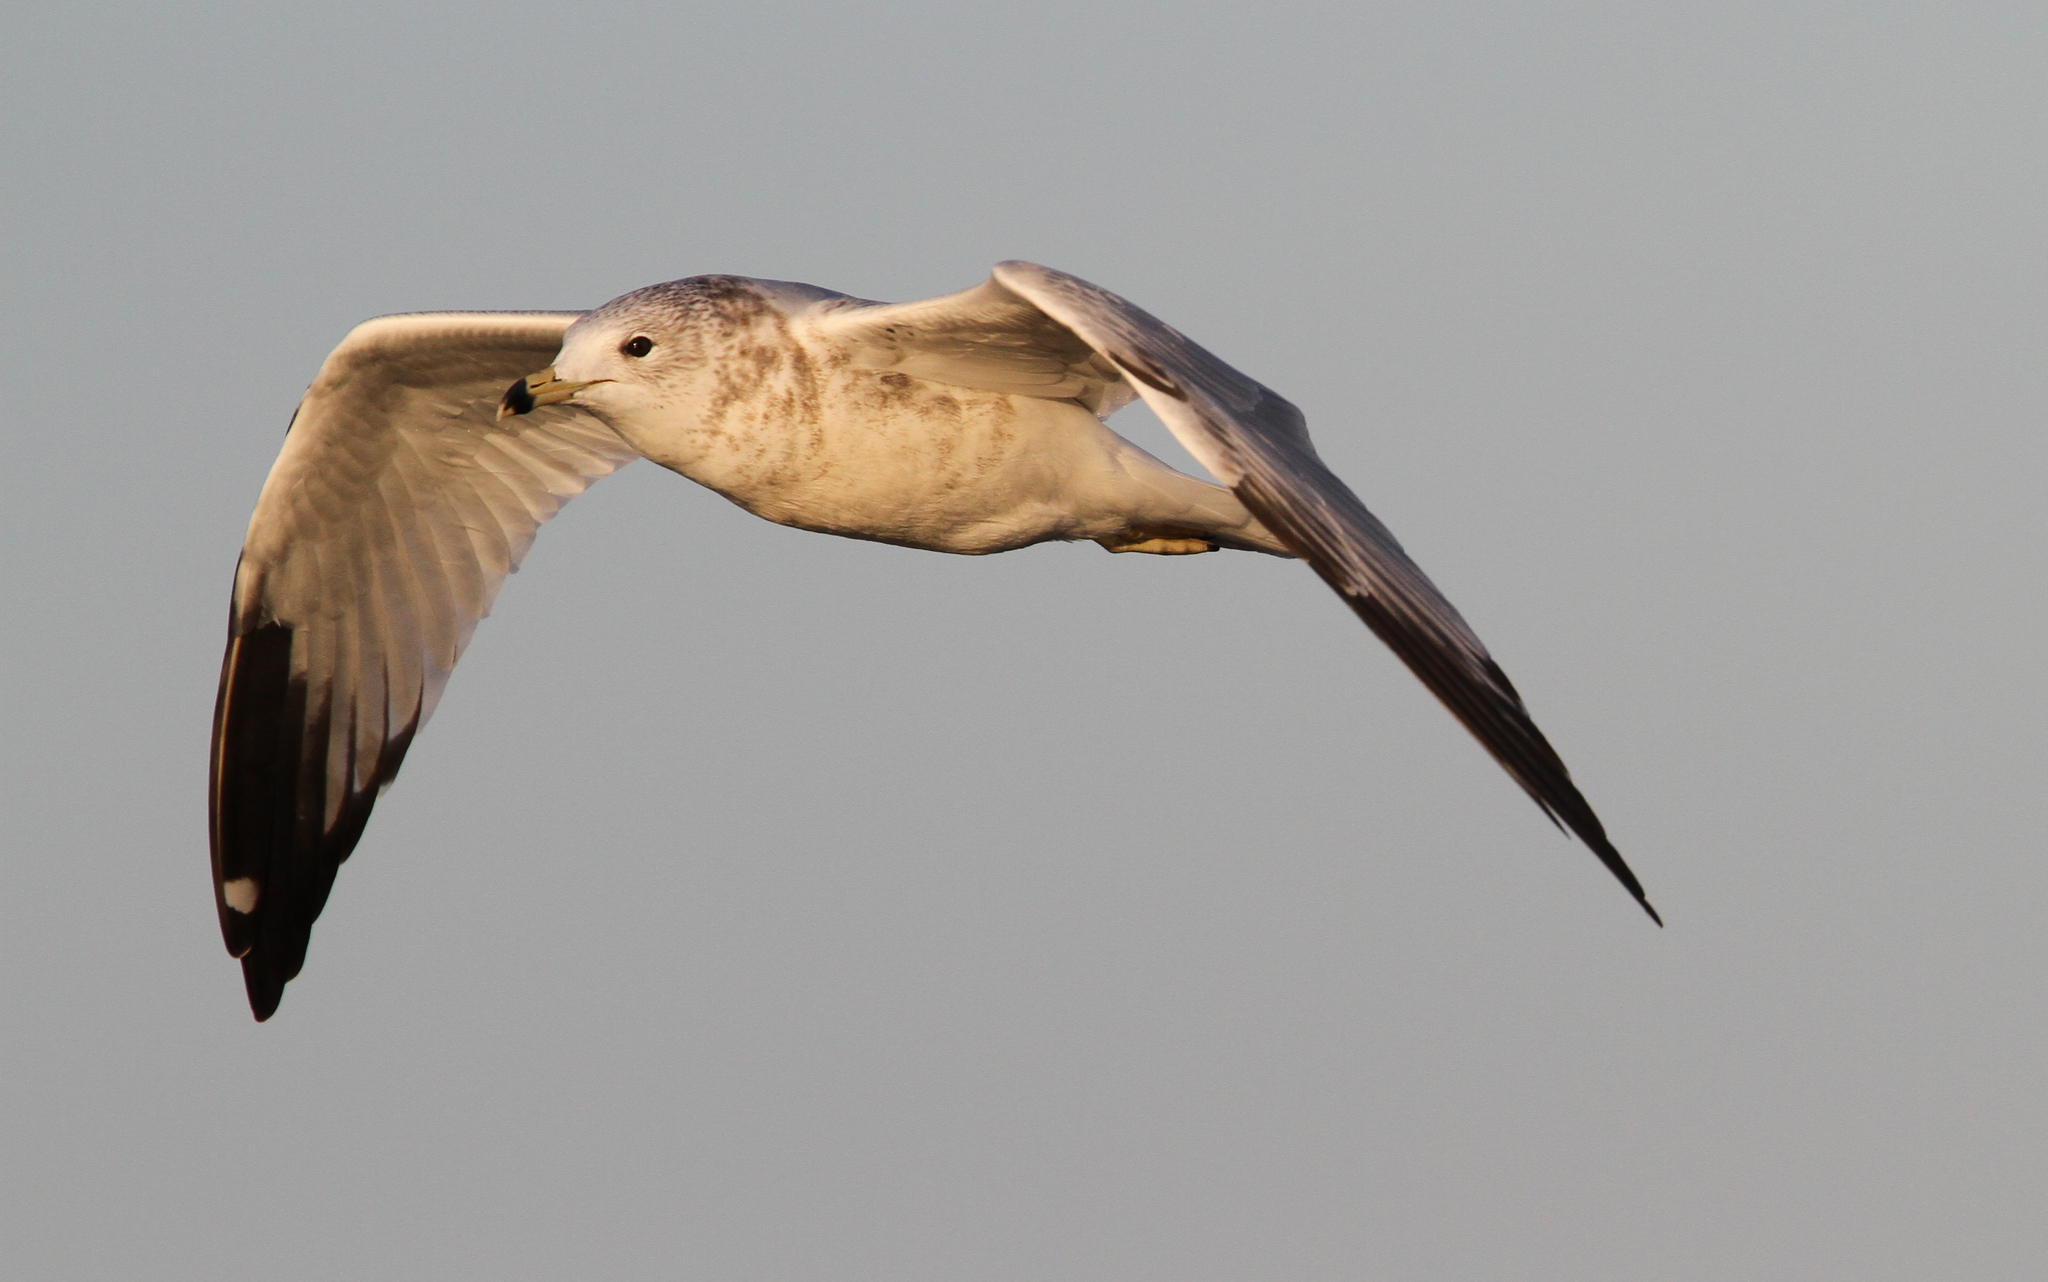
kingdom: Animalia
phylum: Chordata
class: Aves
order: Charadriiformes
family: Laridae
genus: Larus
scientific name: Larus delawarensis
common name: Ring-billed gull
